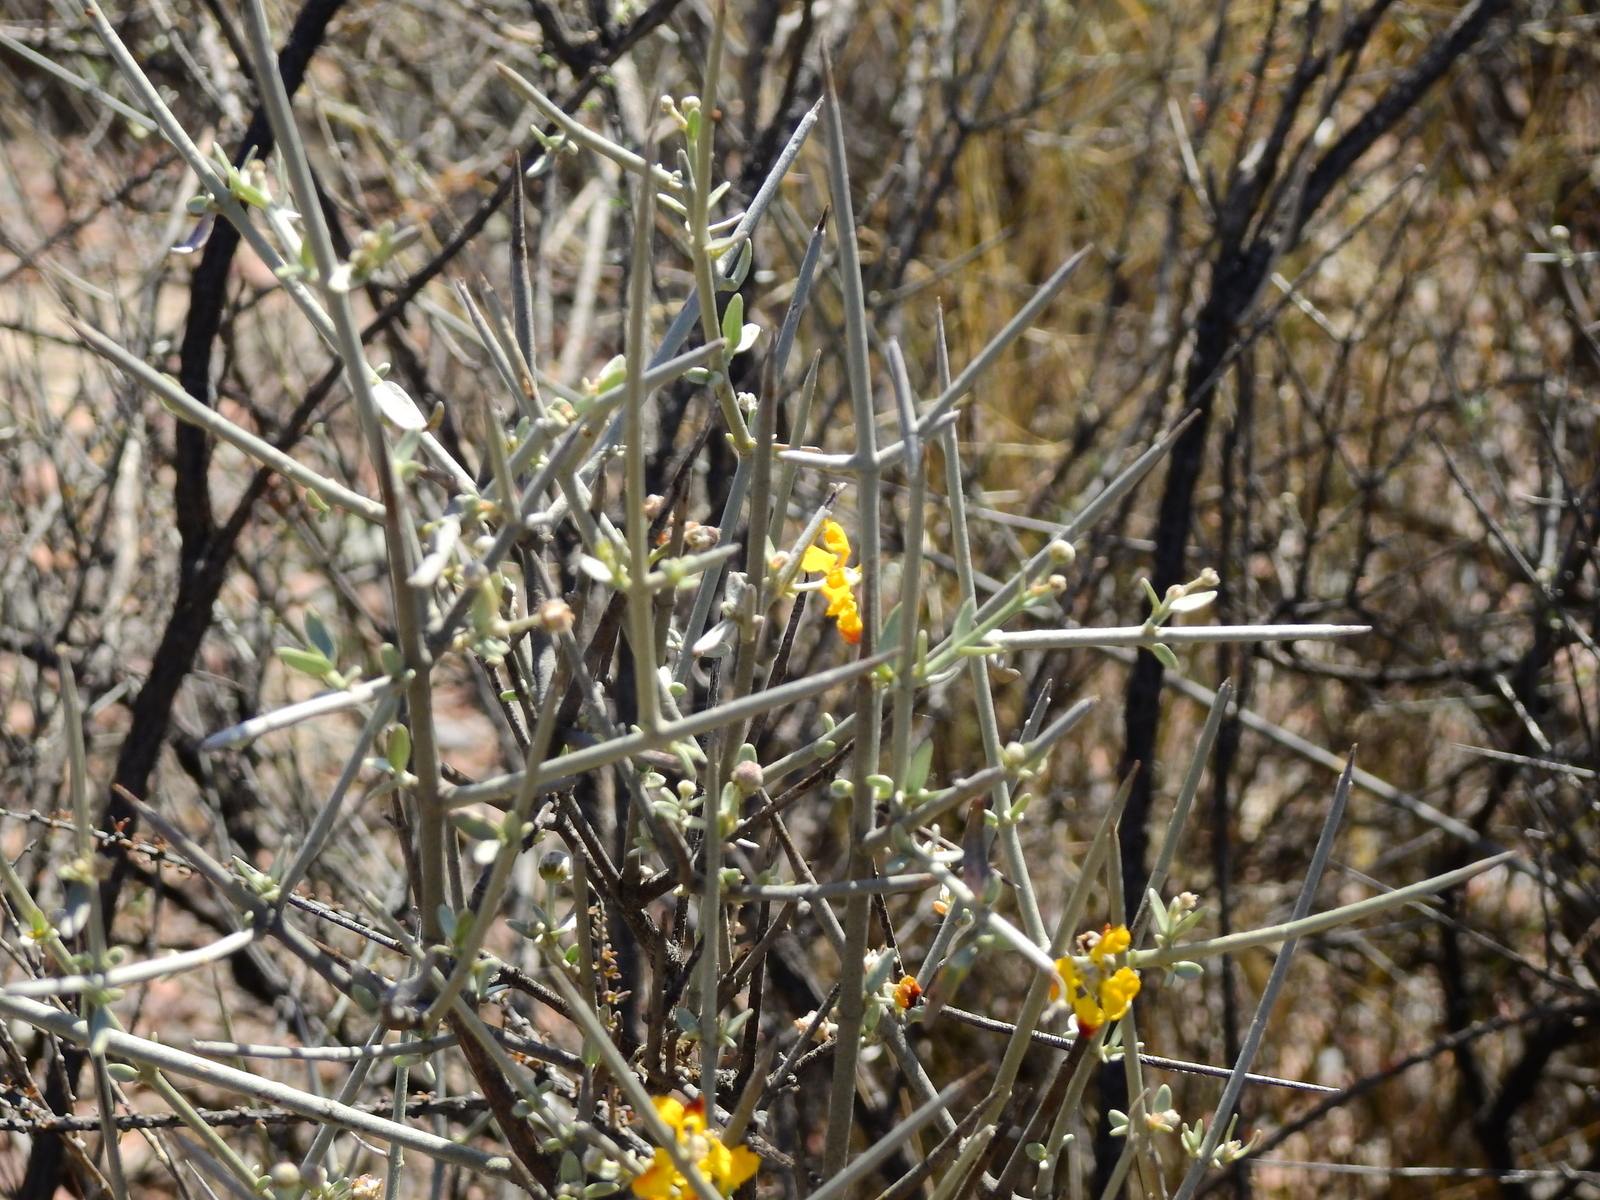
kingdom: Plantae
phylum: Tracheophyta
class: Magnoliopsida
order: Malpighiales
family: Malpighiaceae
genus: Tricomaria
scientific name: Tricomaria usillo
